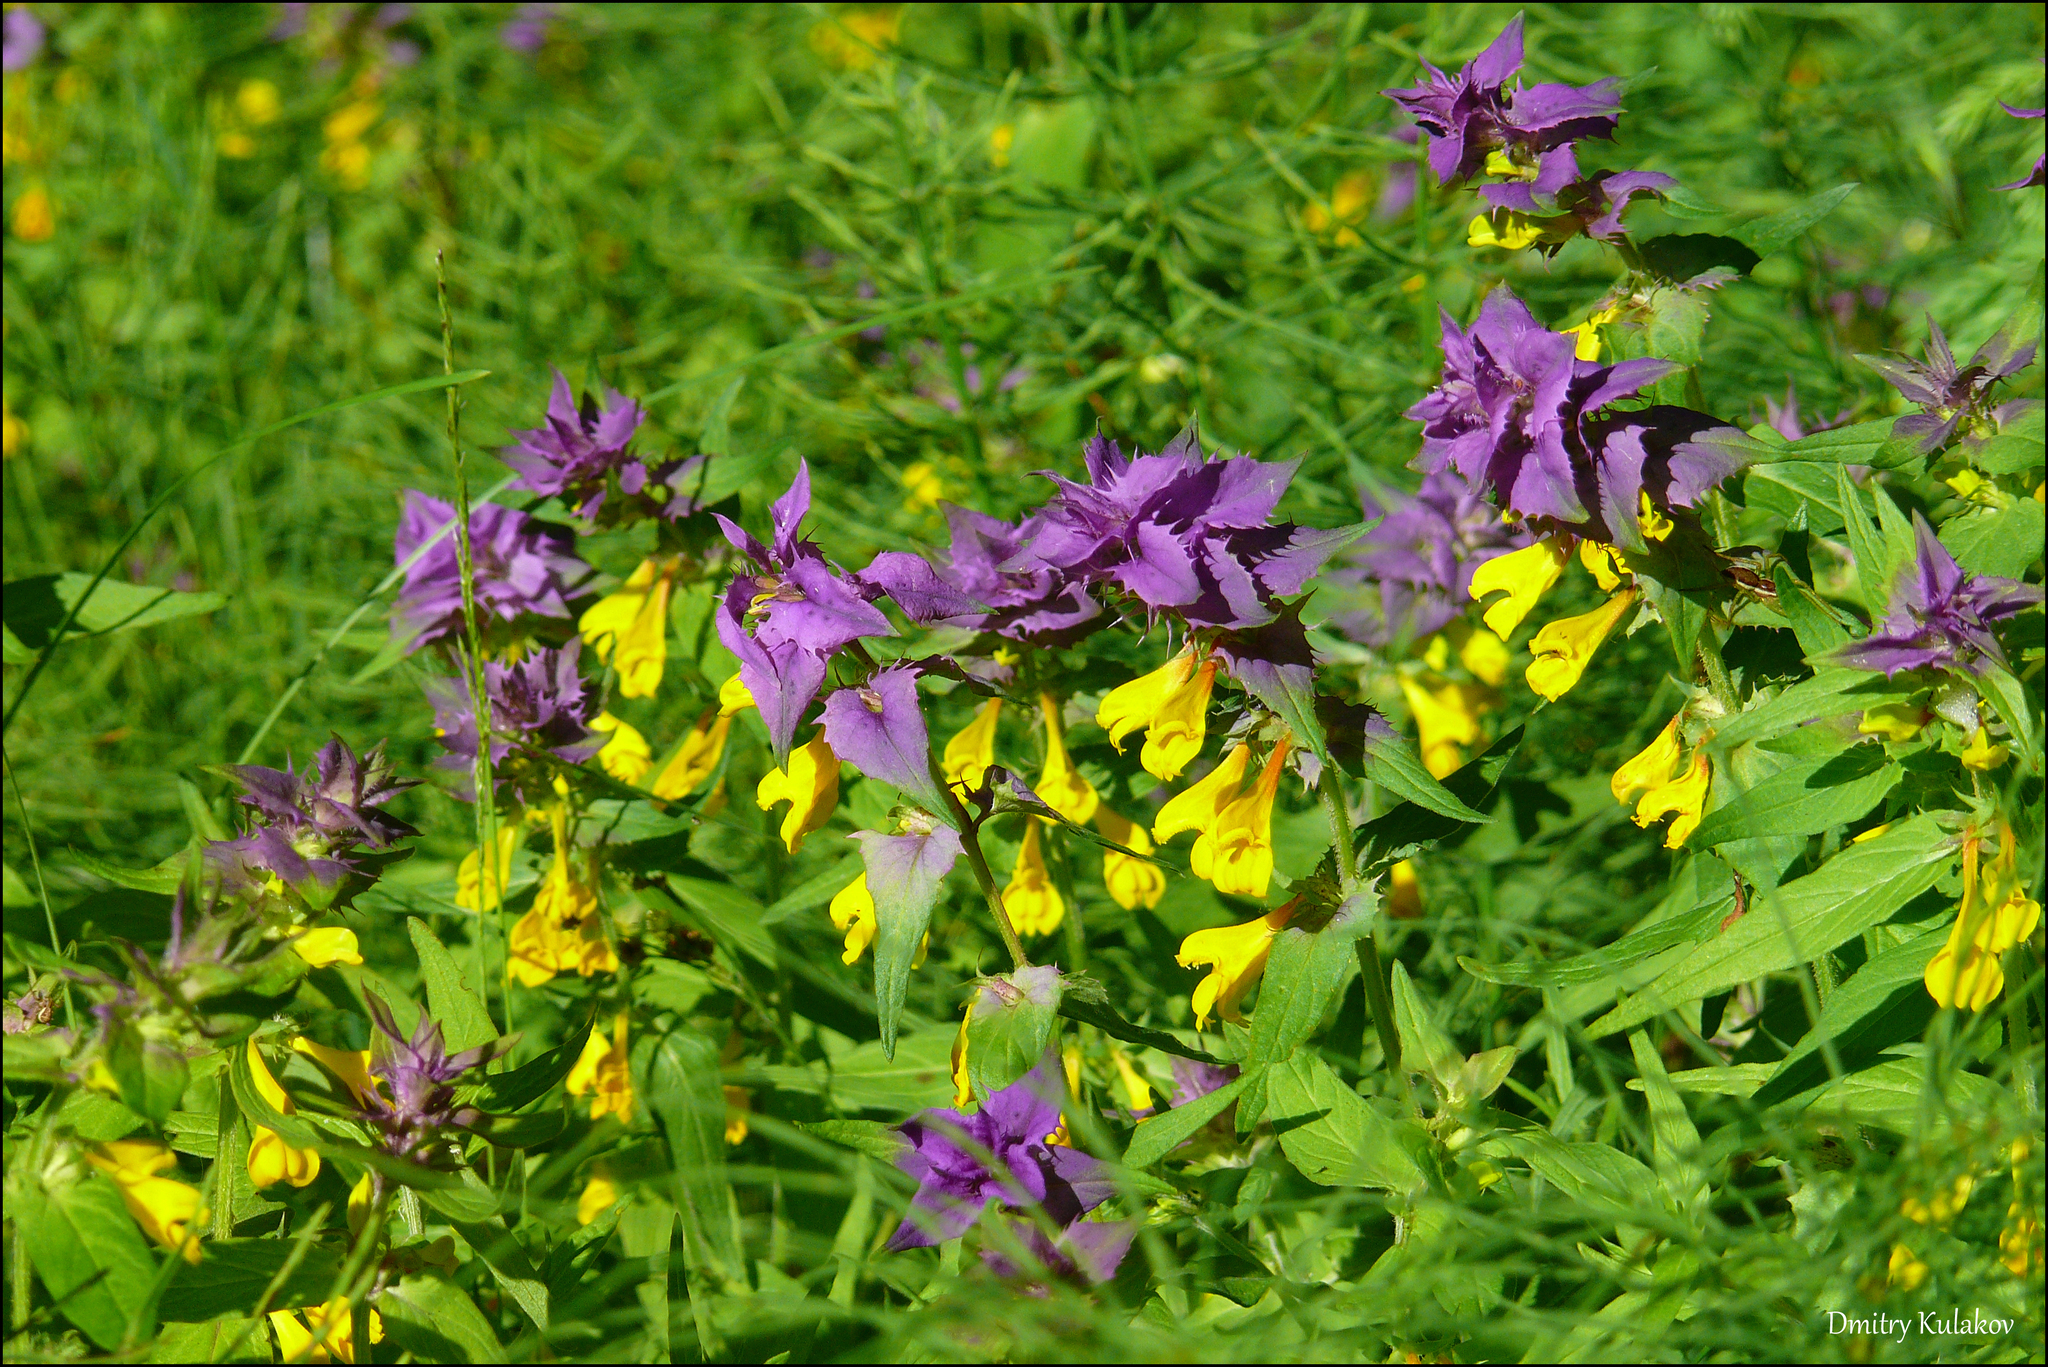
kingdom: Plantae
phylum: Tracheophyta
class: Magnoliopsida
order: Lamiales
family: Orobanchaceae
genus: Melampyrum
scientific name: Melampyrum nemorosum
